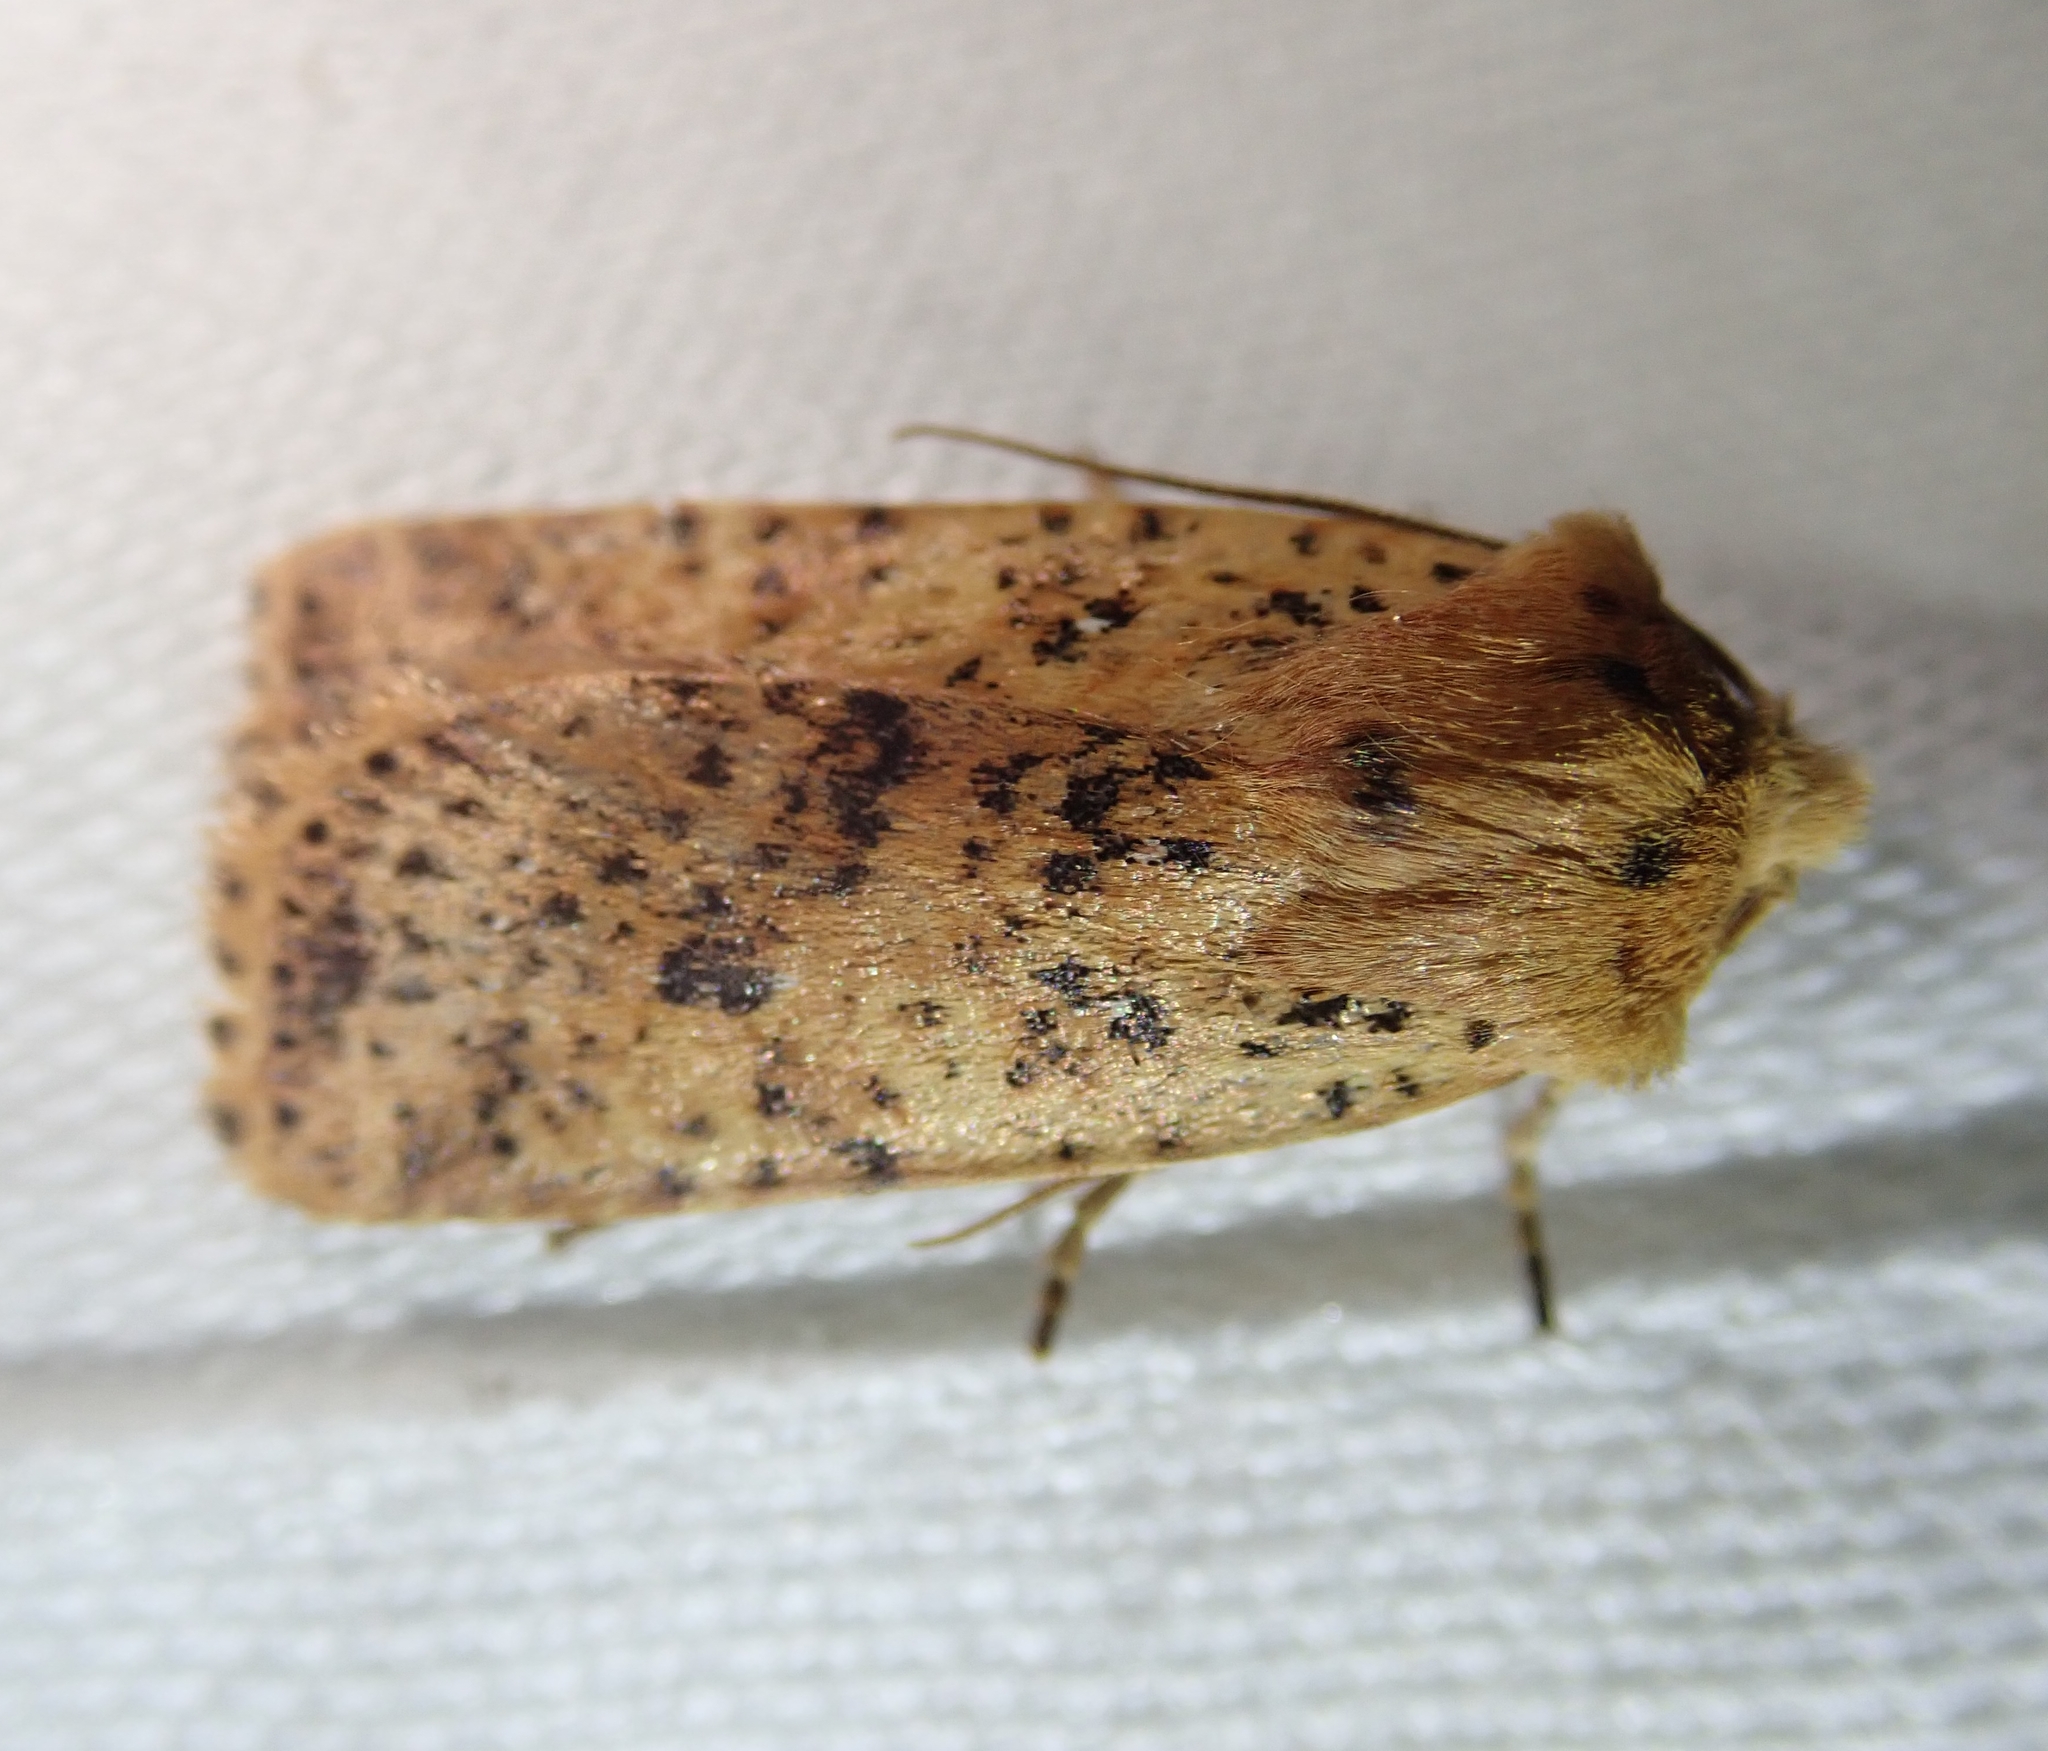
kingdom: Animalia
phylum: Arthropoda
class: Insecta
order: Lepidoptera
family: Noctuidae
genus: Conistra
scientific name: Conistra rubiginea
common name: Dotted chestnut
